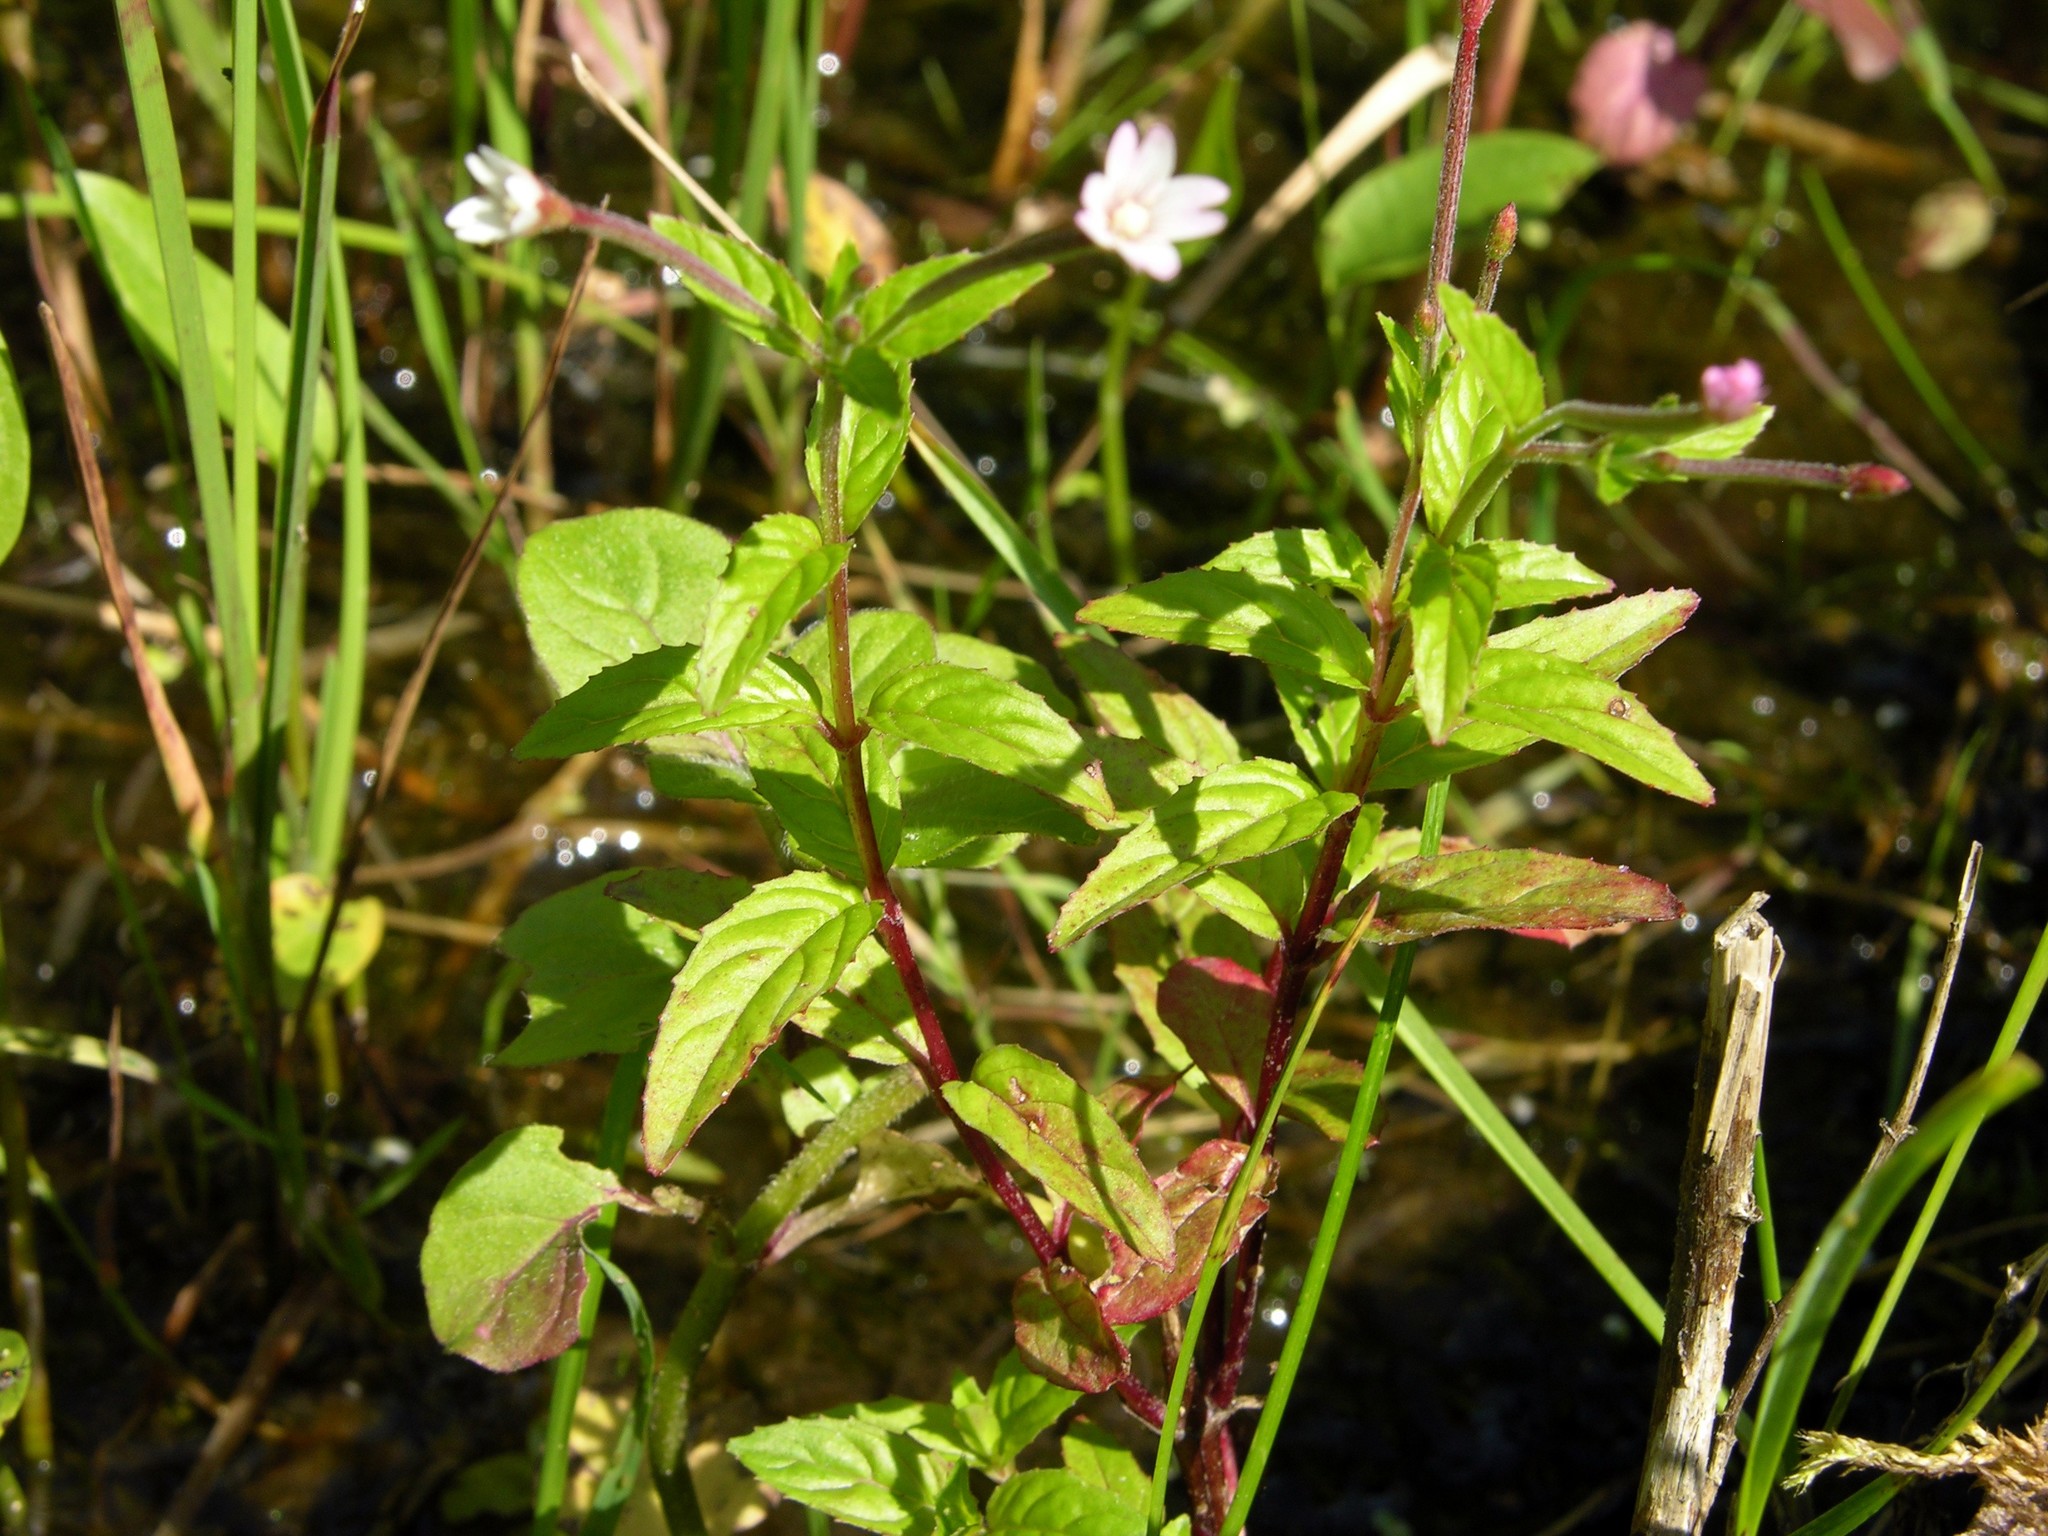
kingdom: Plantae
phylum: Tracheophyta
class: Magnoliopsida
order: Myrtales
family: Onagraceae
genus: Epilobium
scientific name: Epilobium tetragonum
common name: Square-stemmed willowherb
